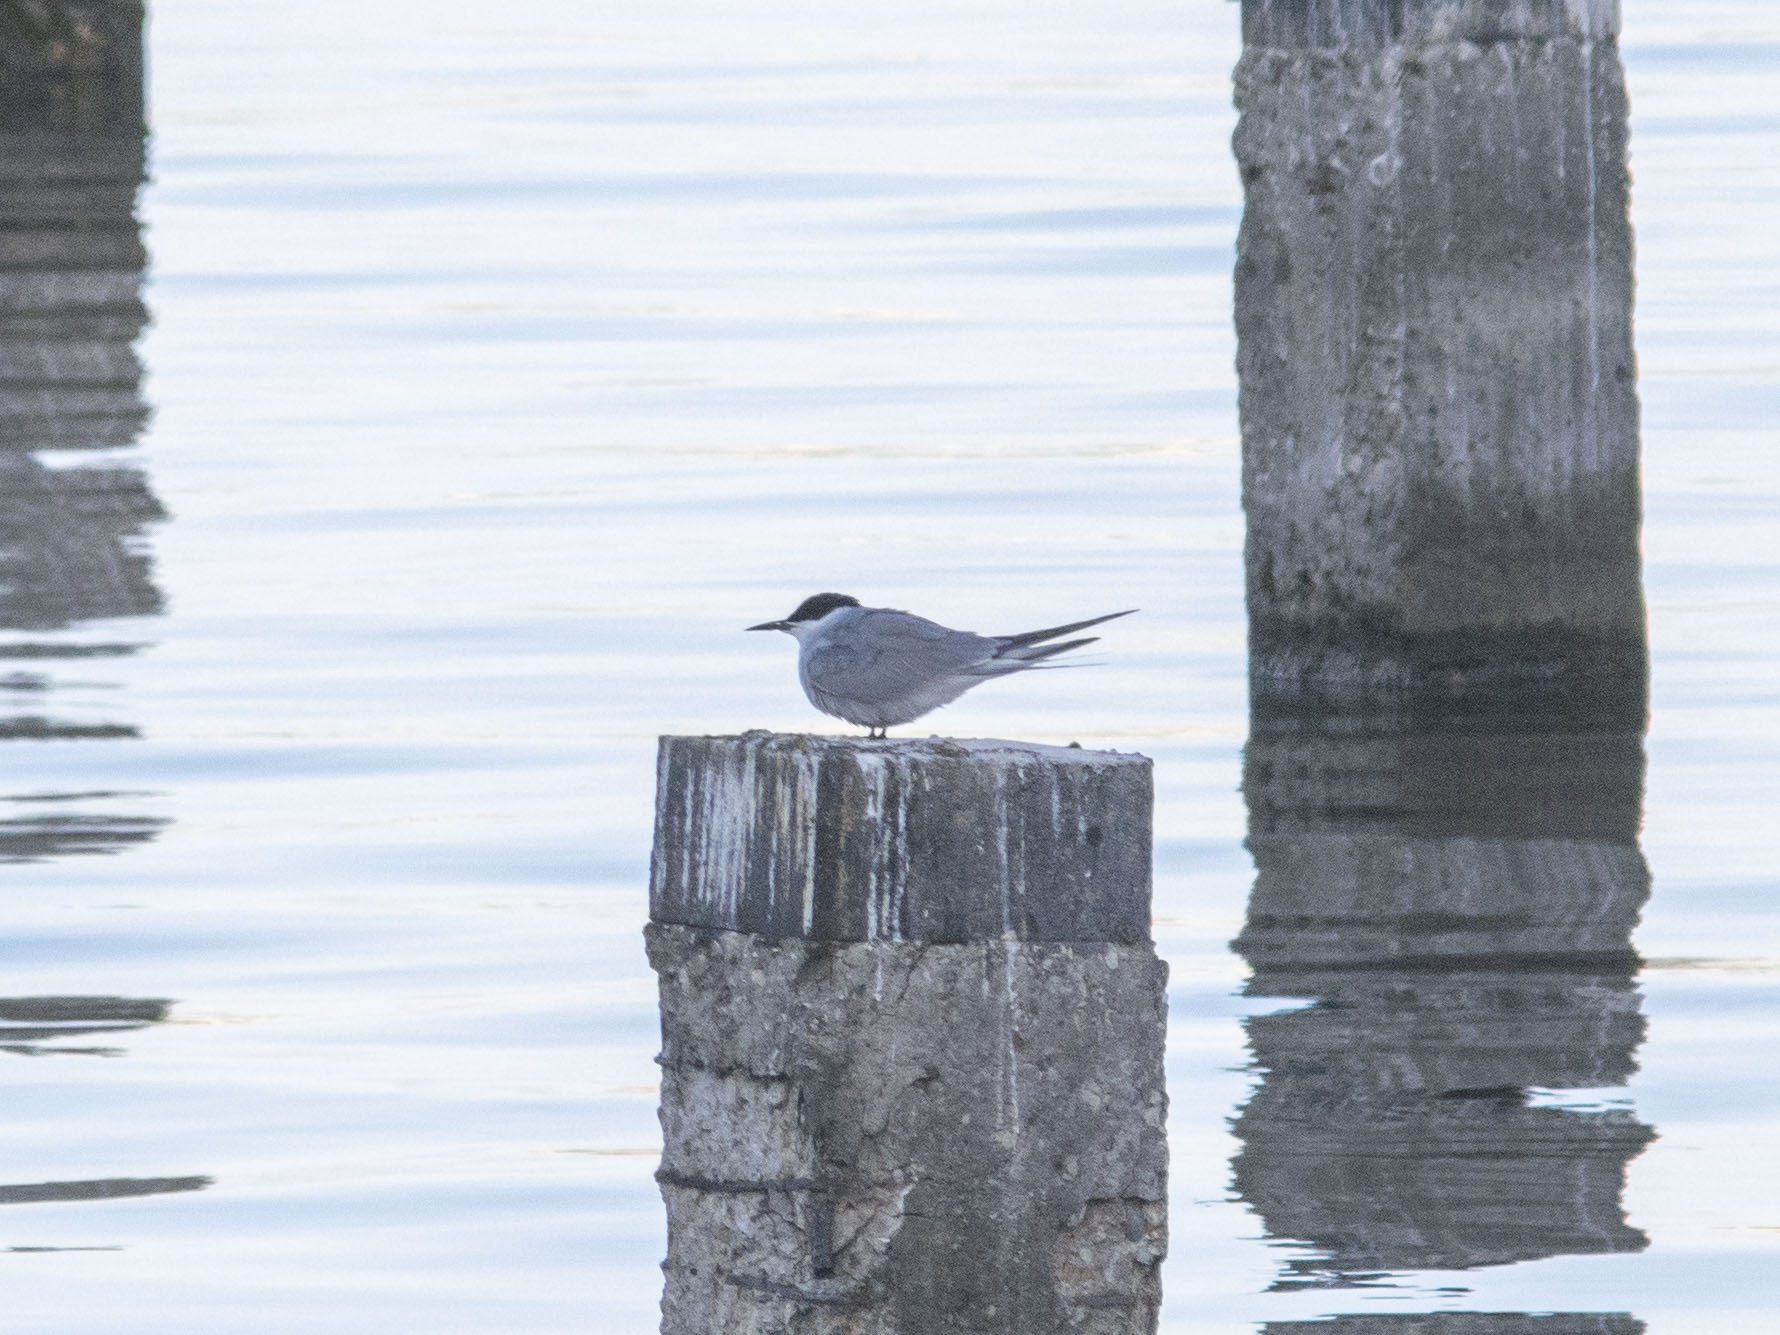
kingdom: Animalia
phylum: Chordata
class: Aves
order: Charadriiformes
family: Laridae
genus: Sterna
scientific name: Sterna hirundo
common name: Common tern
